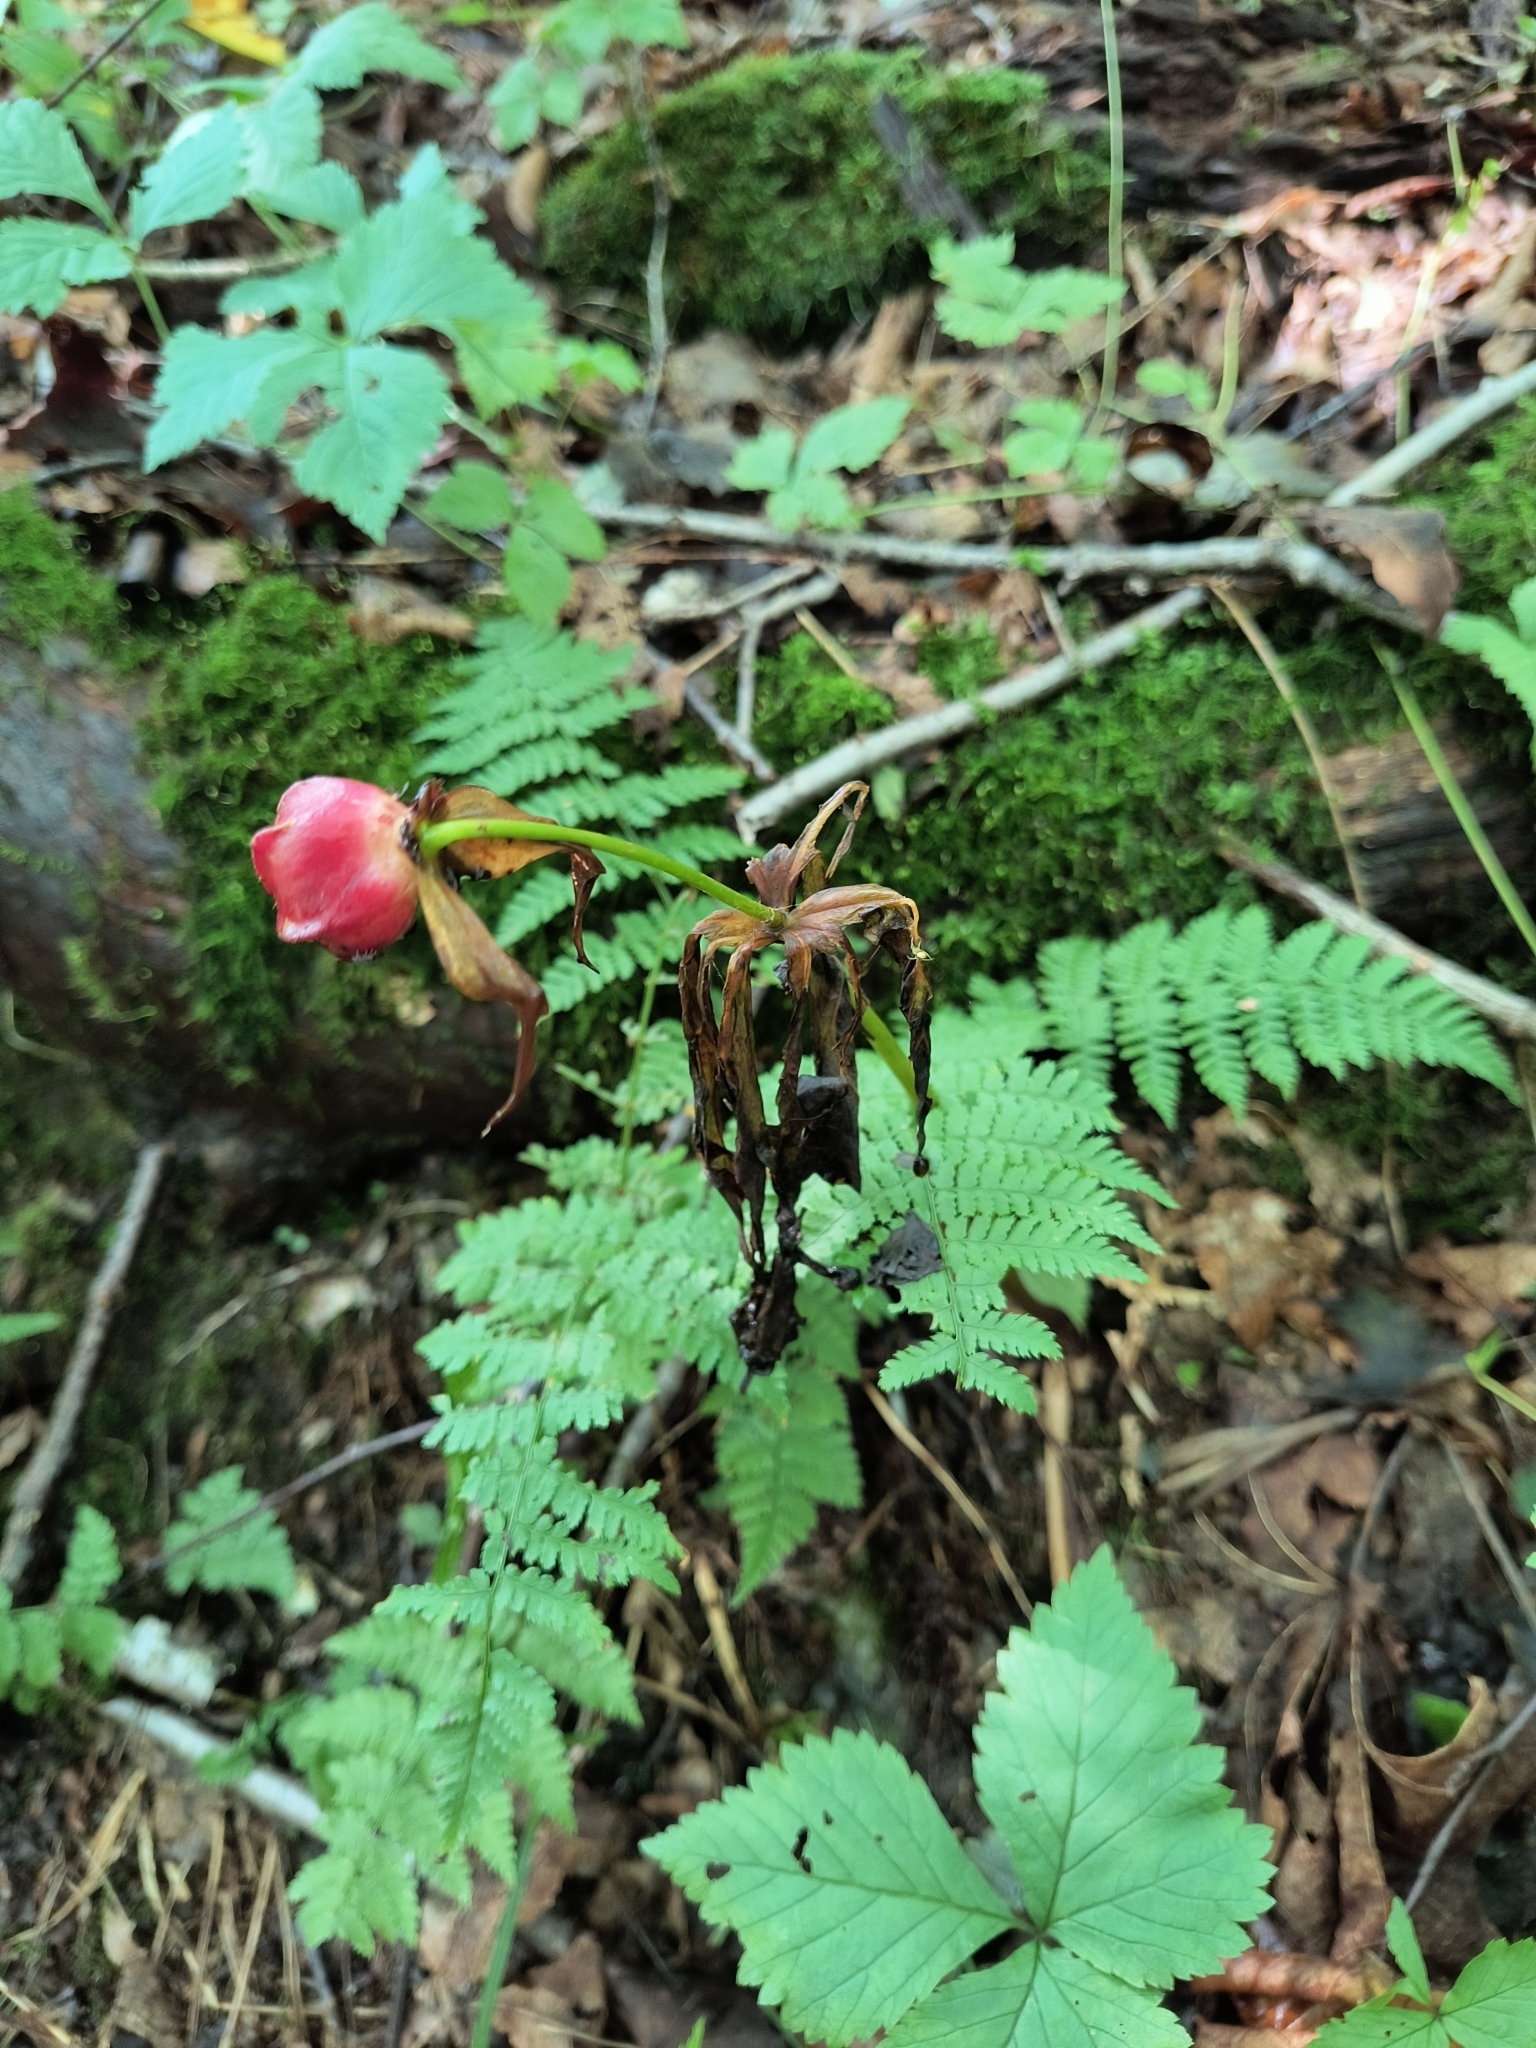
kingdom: Plantae
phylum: Tracheophyta
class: Liliopsida
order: Liliales
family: Melanthiaceae
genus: Trillium
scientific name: Trillium erectum
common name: Purple trillium
